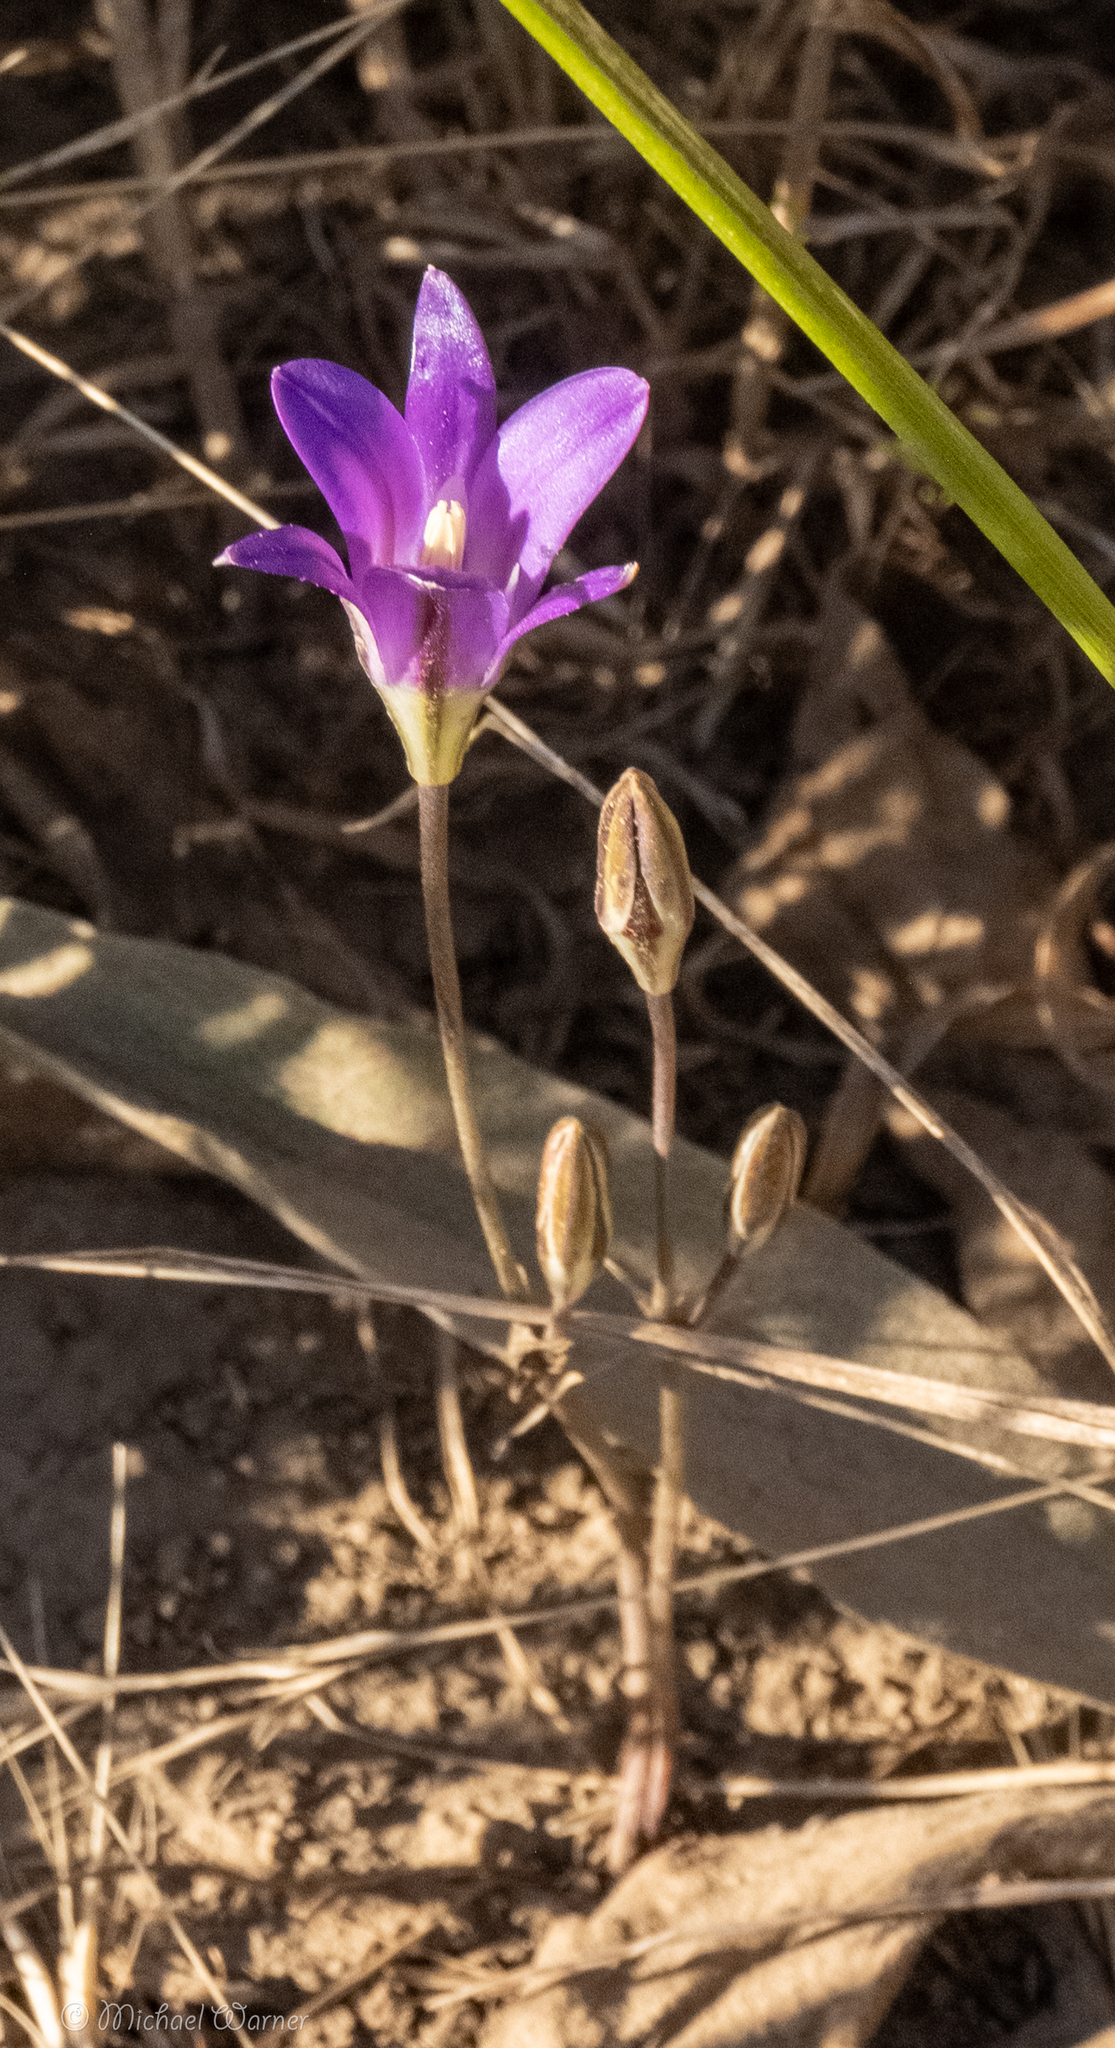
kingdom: Plantae
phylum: Tracheophyta
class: Liliopsida
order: Asparagales
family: Asparagaceae
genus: Brodiaea
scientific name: Brodiaea elegans
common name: Elegant cluster-lily
